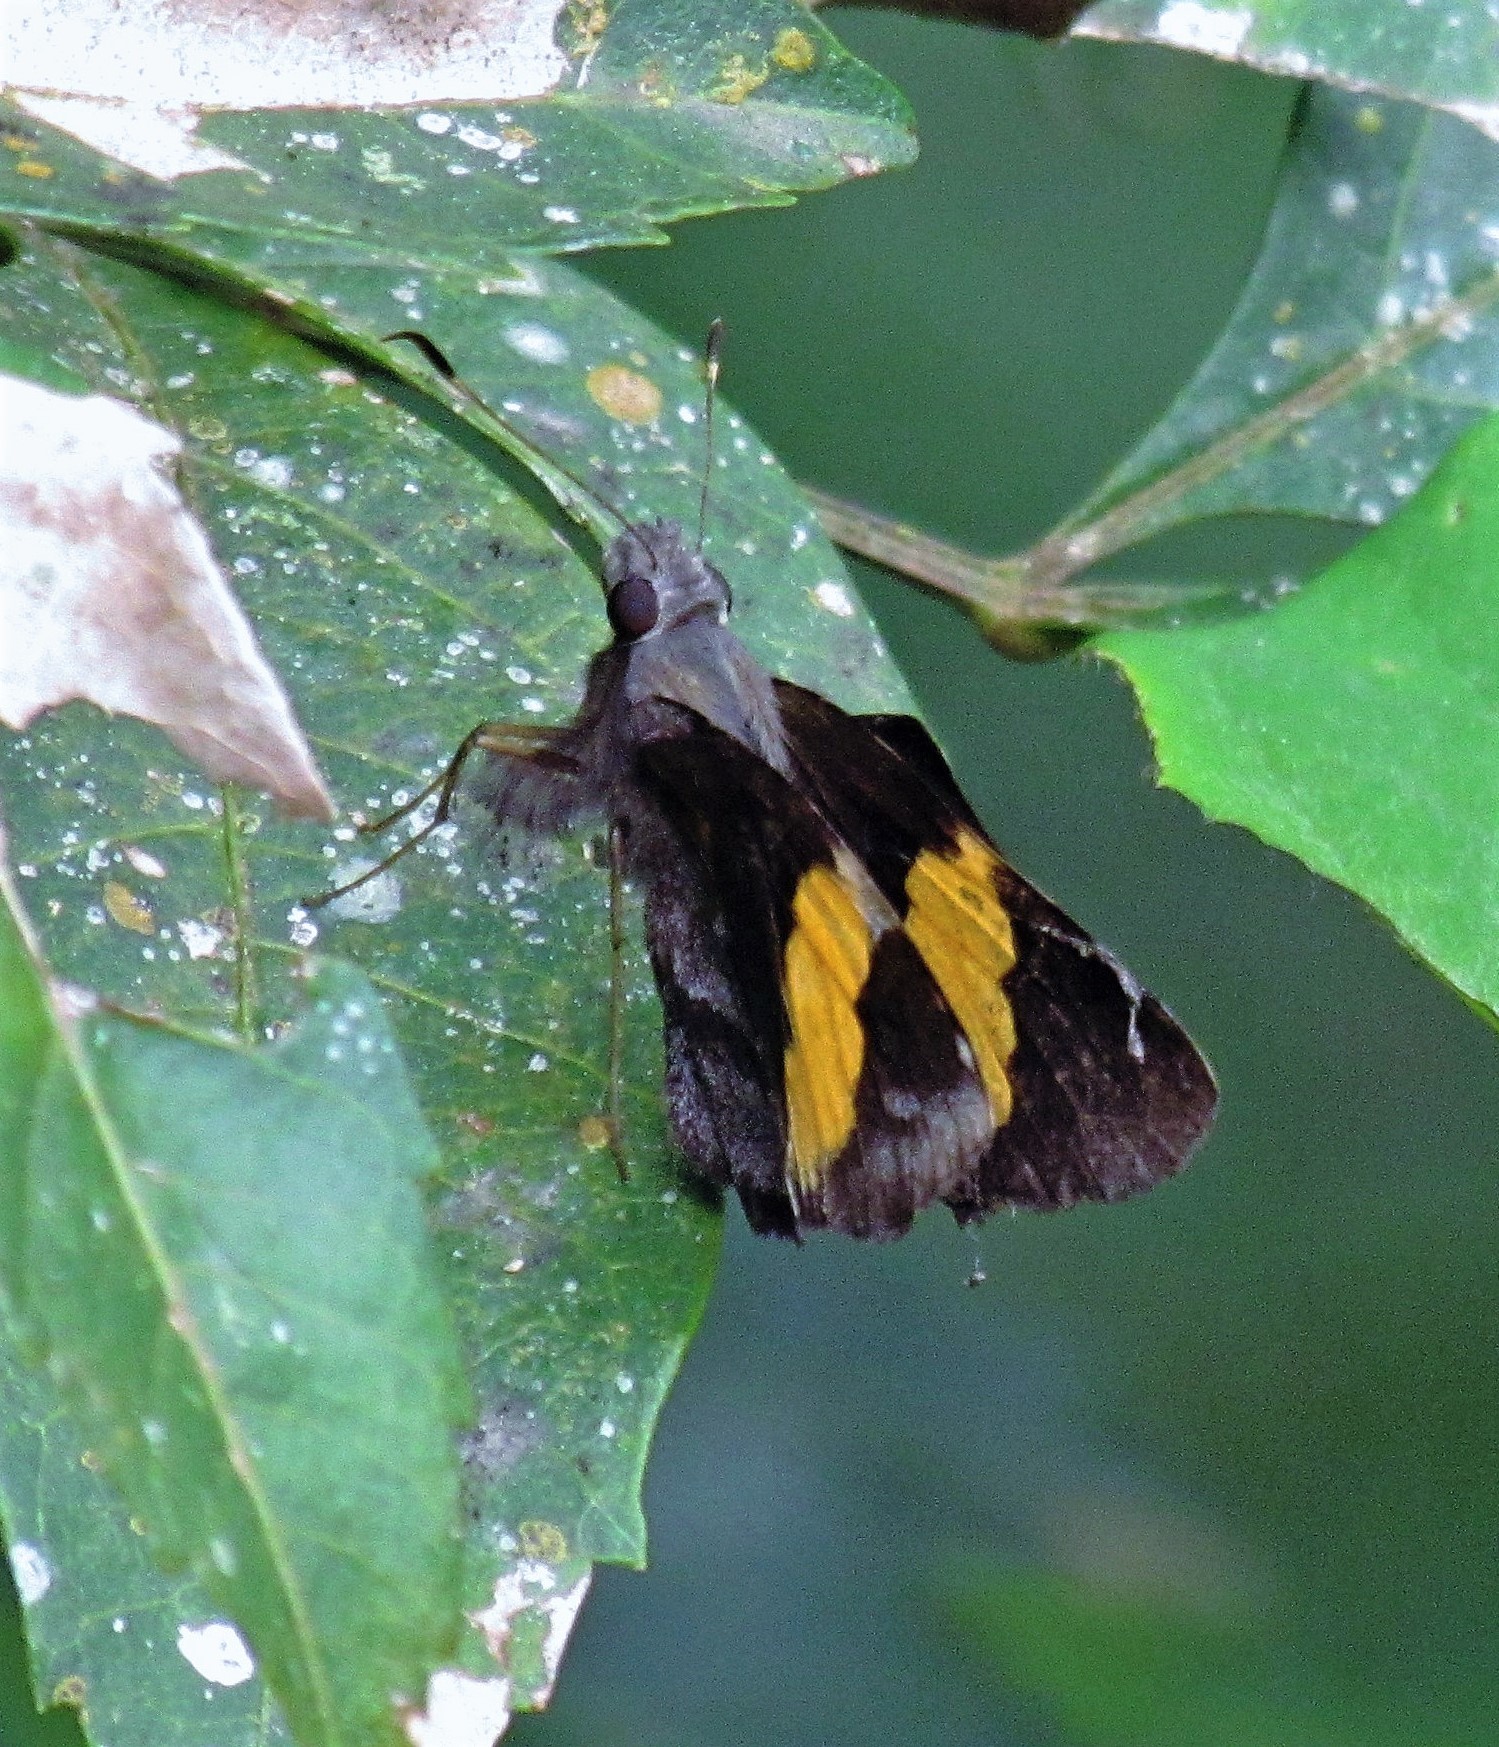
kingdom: Animalia
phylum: Arthropoda
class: Insecta
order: Lepidoptera
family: Hesperiidae
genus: Lychnuchoides
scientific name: Lychnuchoides ozias
